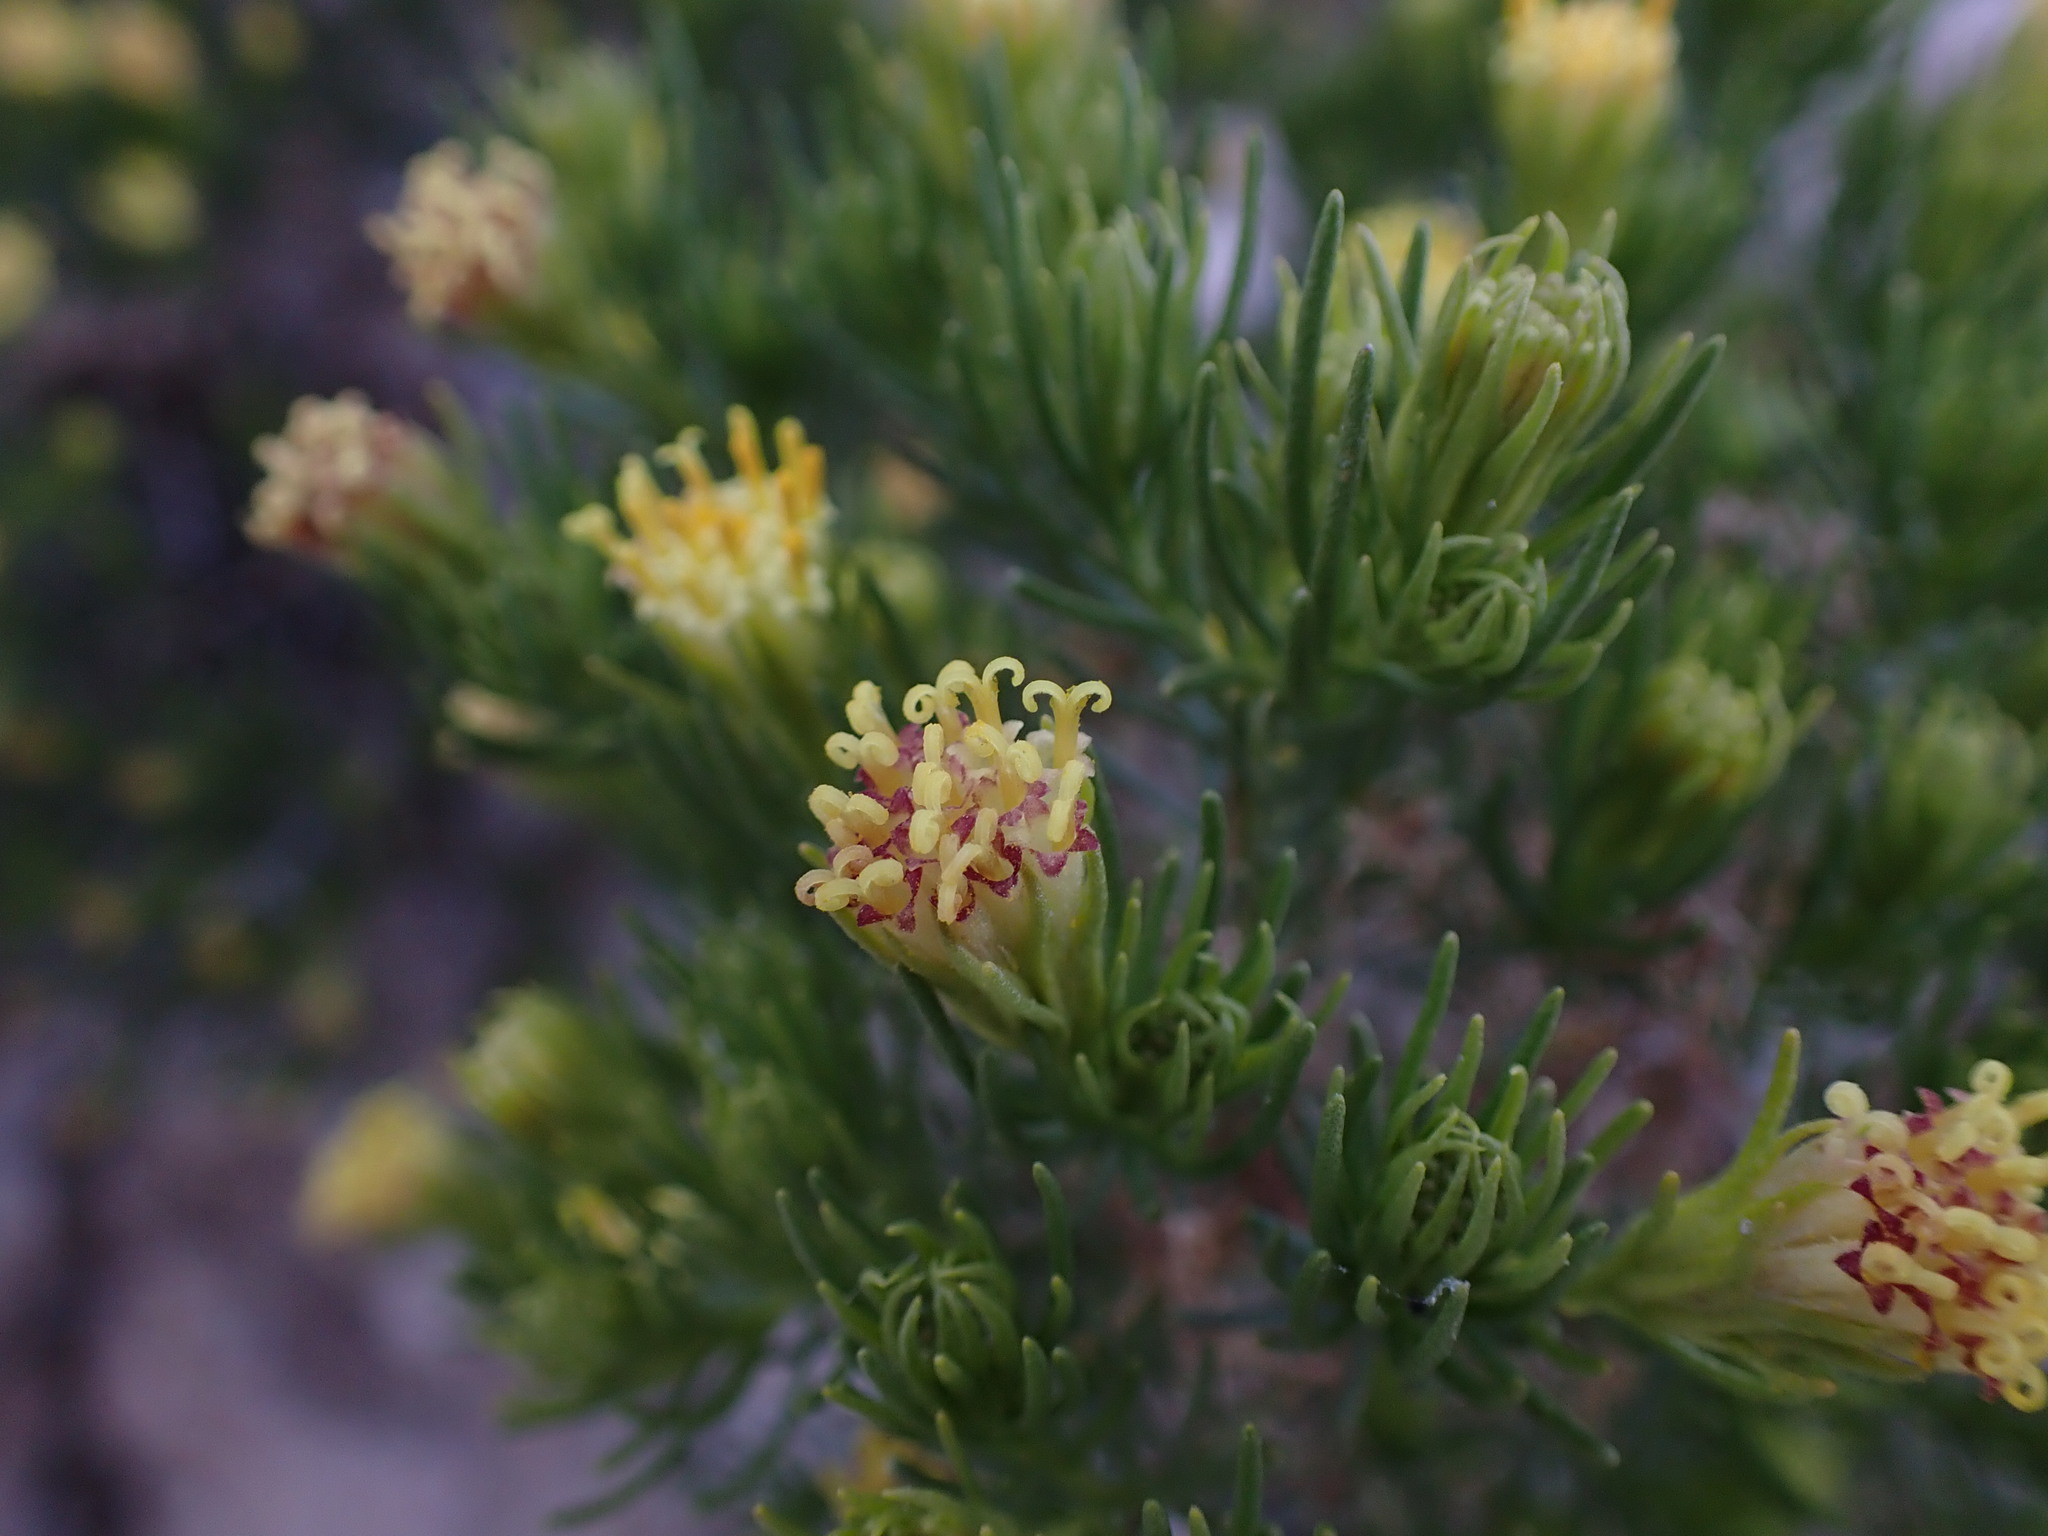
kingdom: Plantae
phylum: Tracheophyta
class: Magnoliopsida
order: Asterales
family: Asteraceae
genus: Peucephyllum
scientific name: Peucephyllum schottii
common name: Pygmy-cedar
